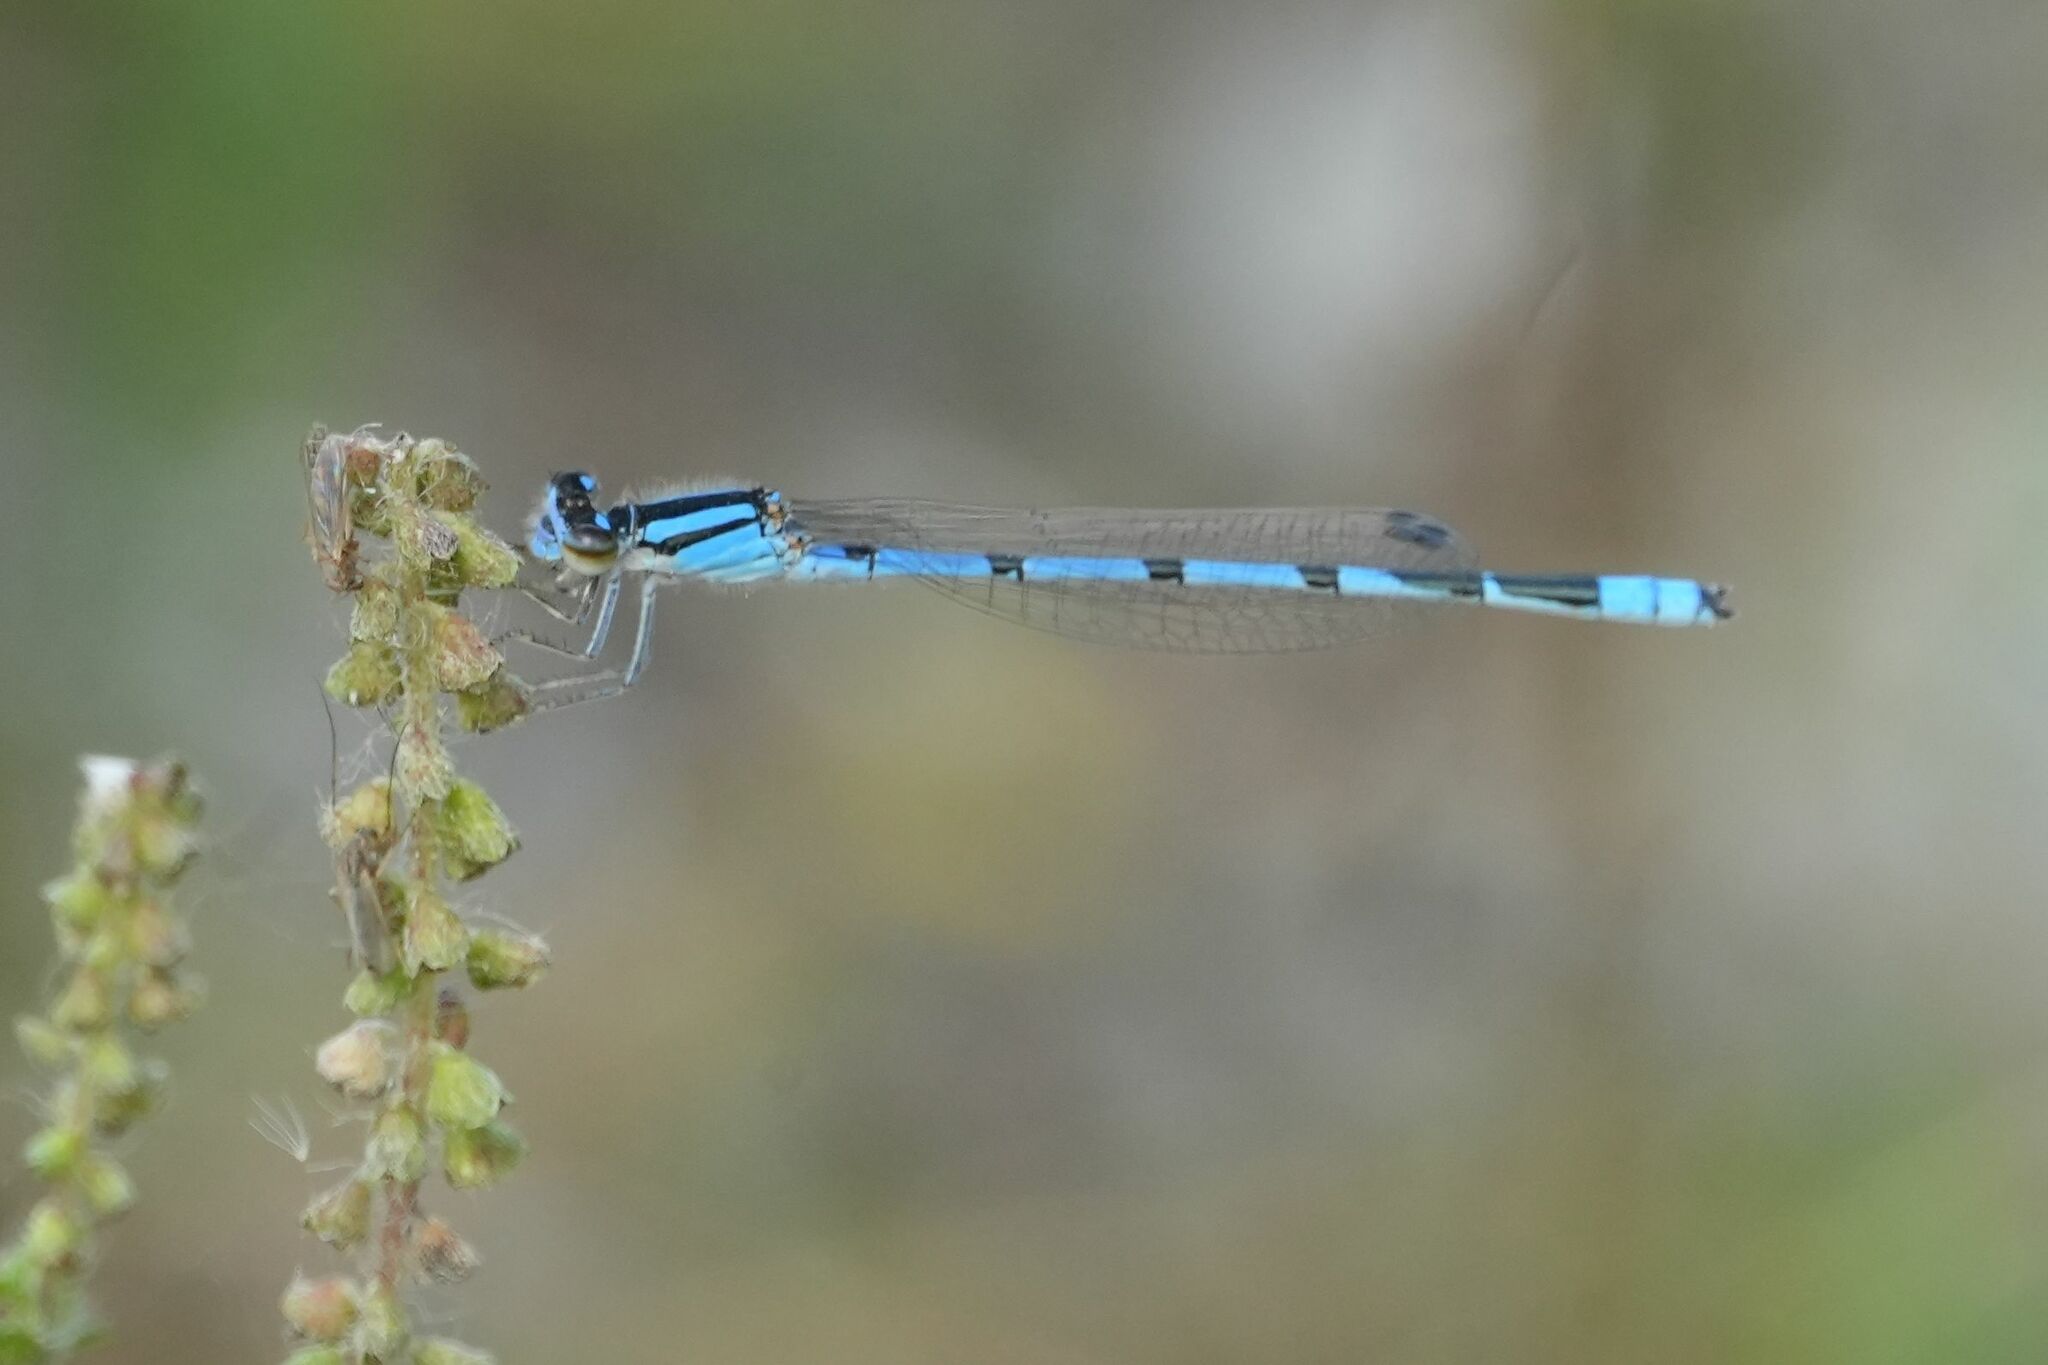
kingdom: Animalia
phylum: Arthropoda
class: Insecta
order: Odonata
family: Coenagrionidae
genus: Enallagma
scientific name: Enallagma civile
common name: Damselfly
